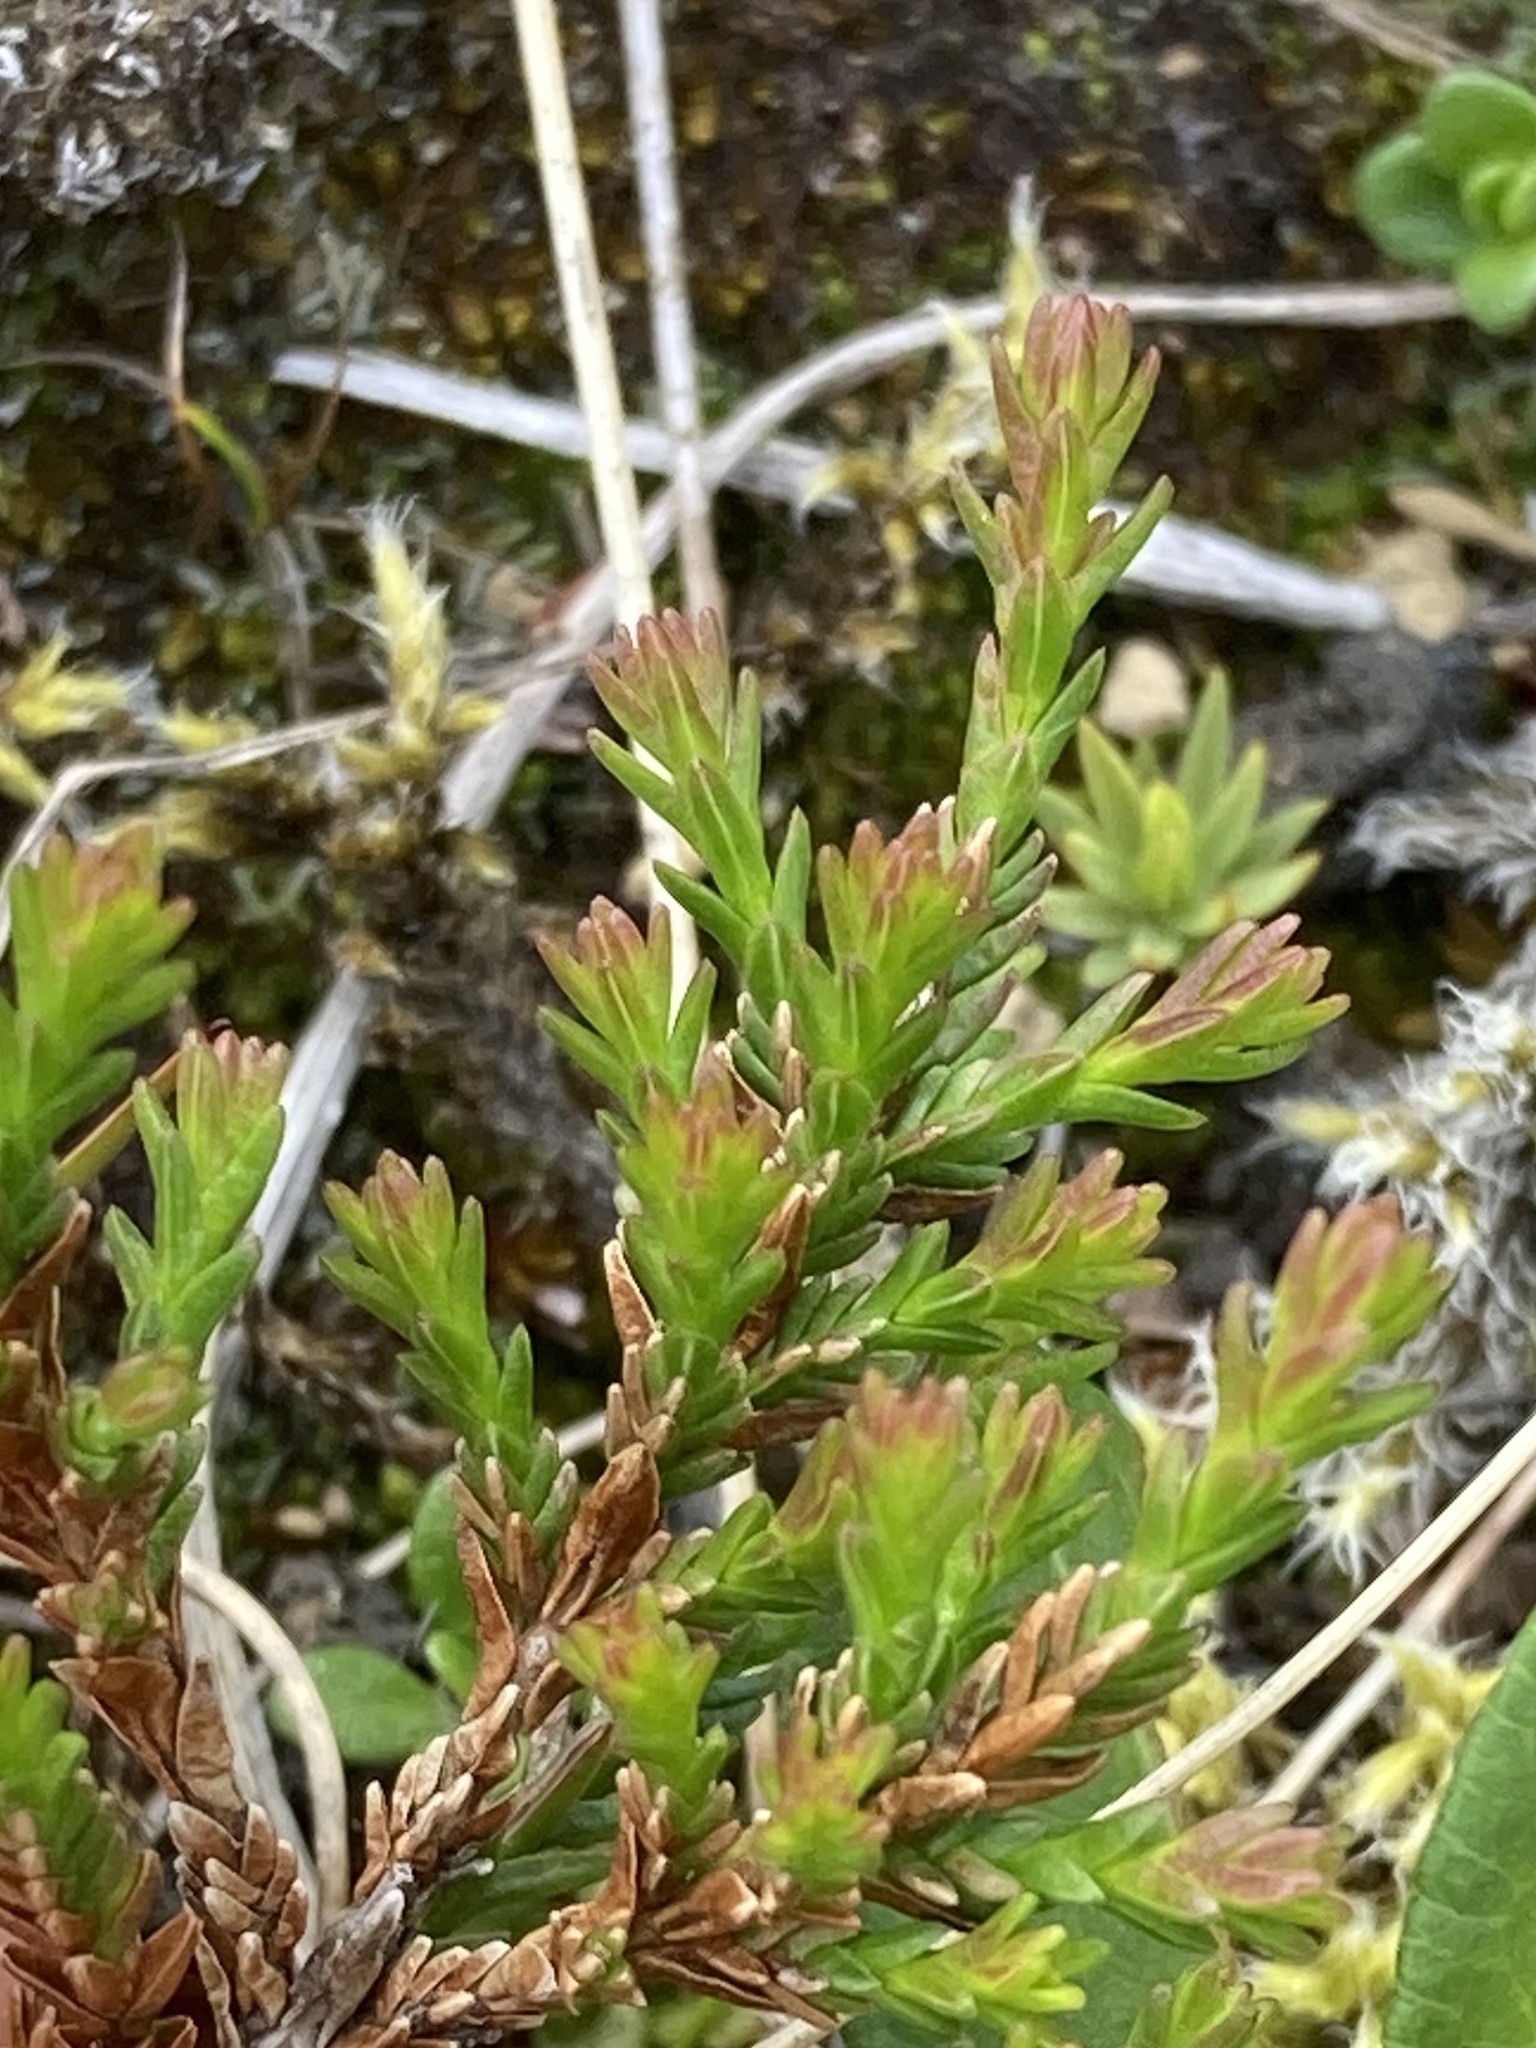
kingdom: Plantae
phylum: Tracheophyta
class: Magnoliopsida
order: Ericales
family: Ericaceae
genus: Calluna
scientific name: Calluna vulgaris
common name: Heather
